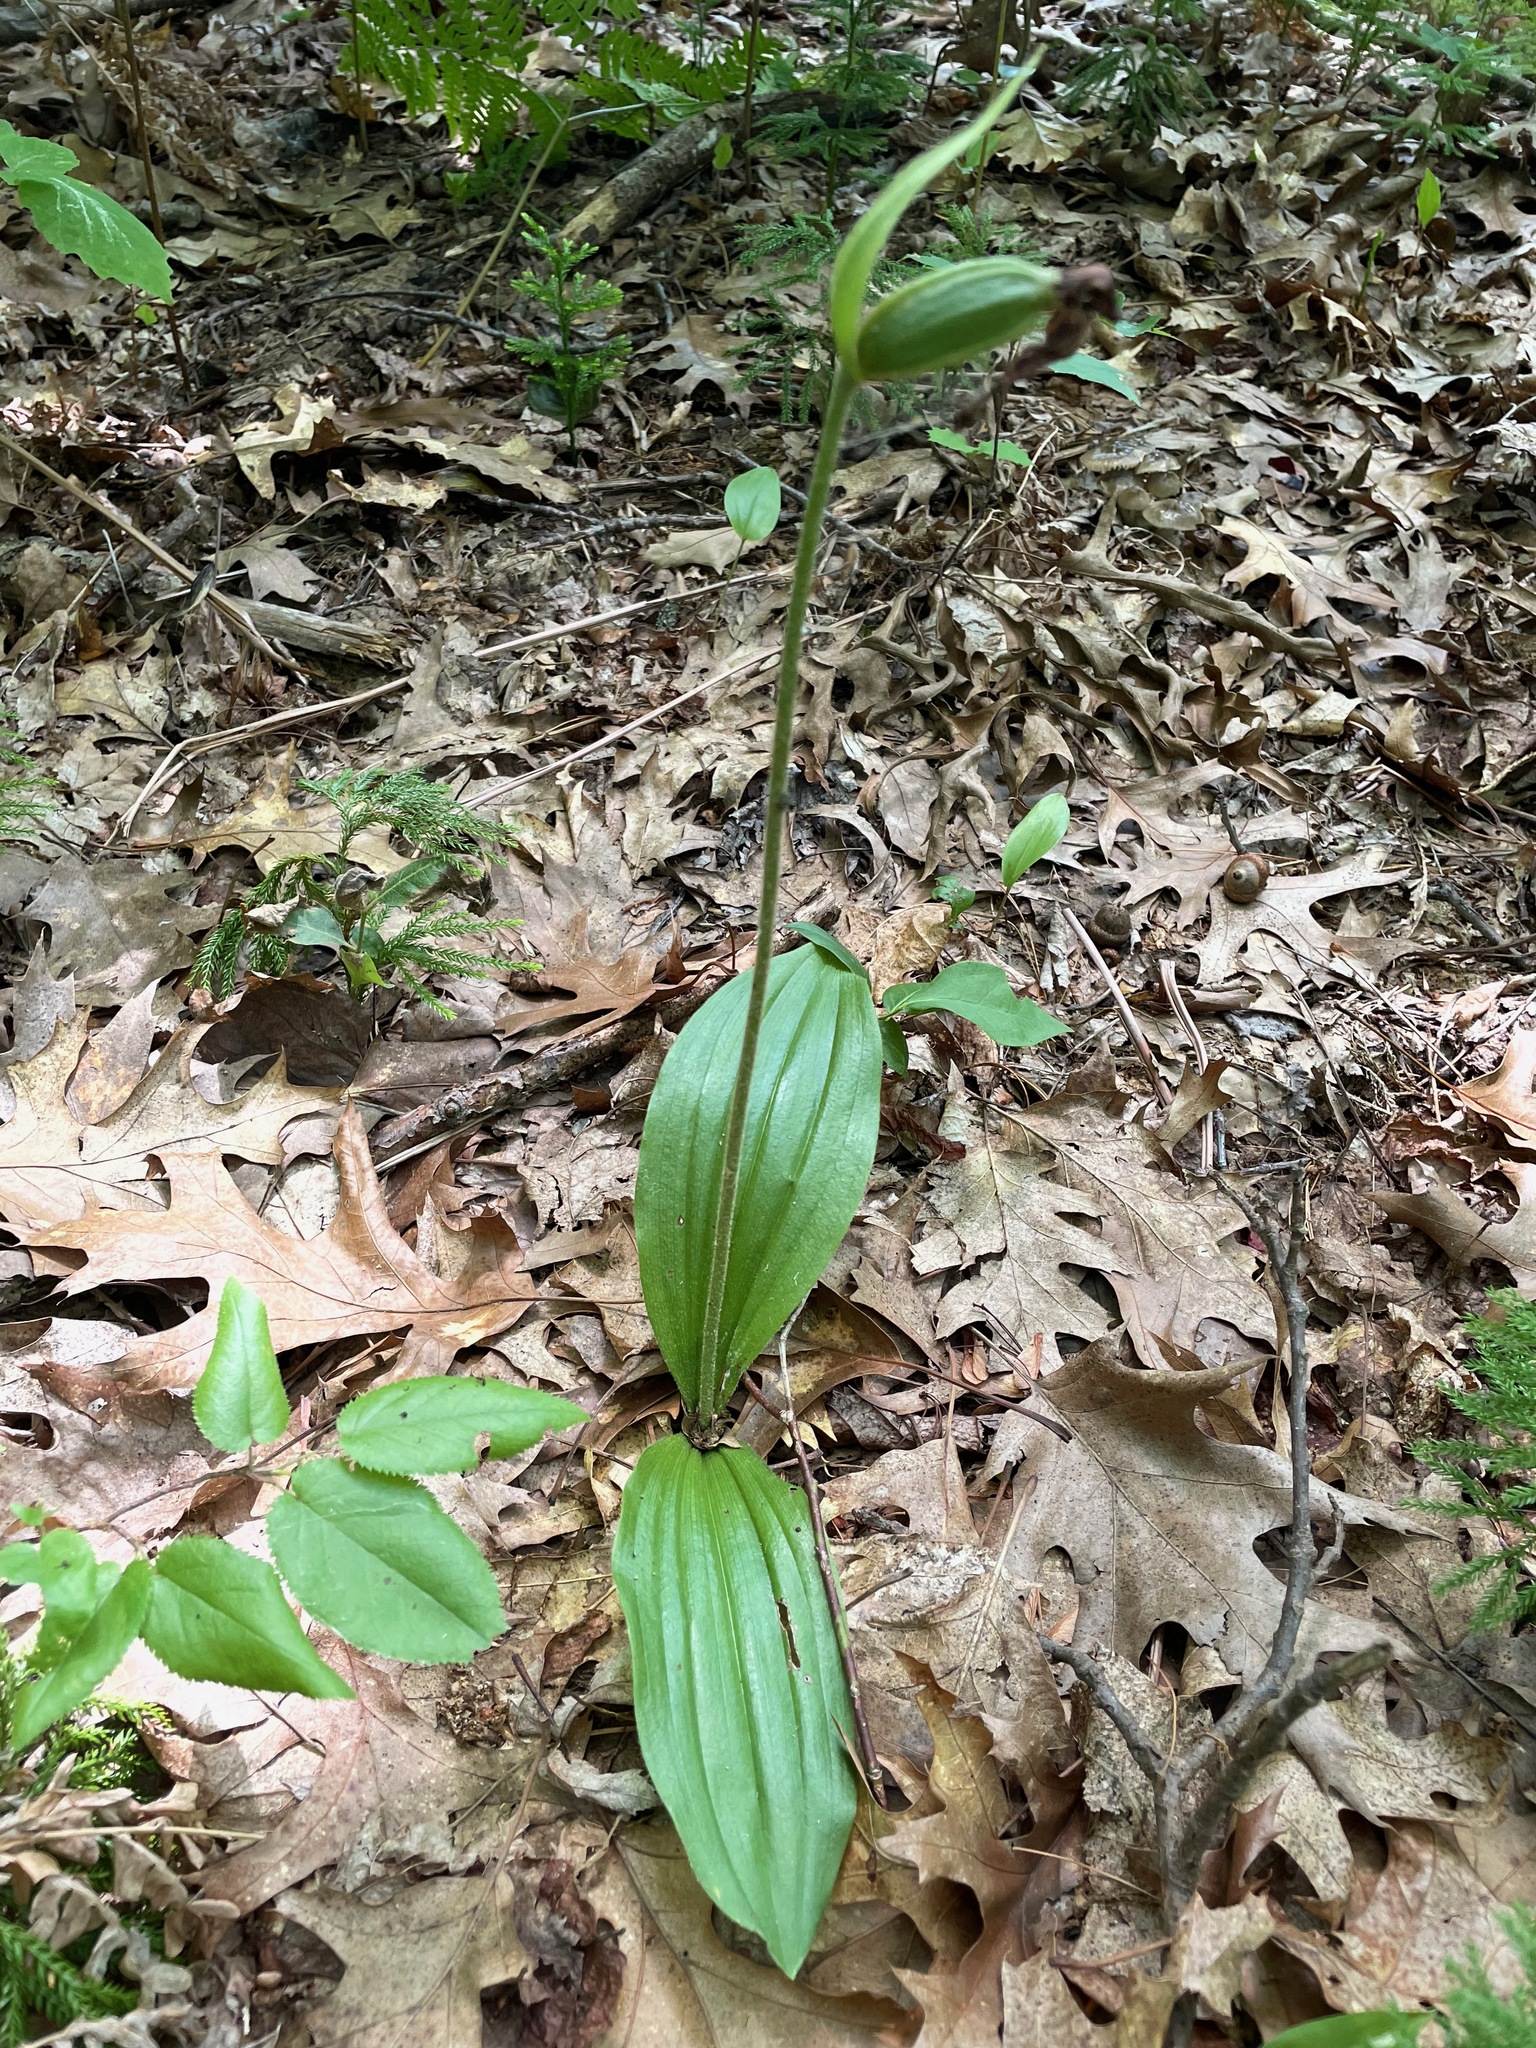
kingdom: Plantae
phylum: Tracheophyta
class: Liliopsida
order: Asparagales
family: Orchidaceae
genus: Cypripedium
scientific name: Cypripedium acaule
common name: Pink lady's-slipper
